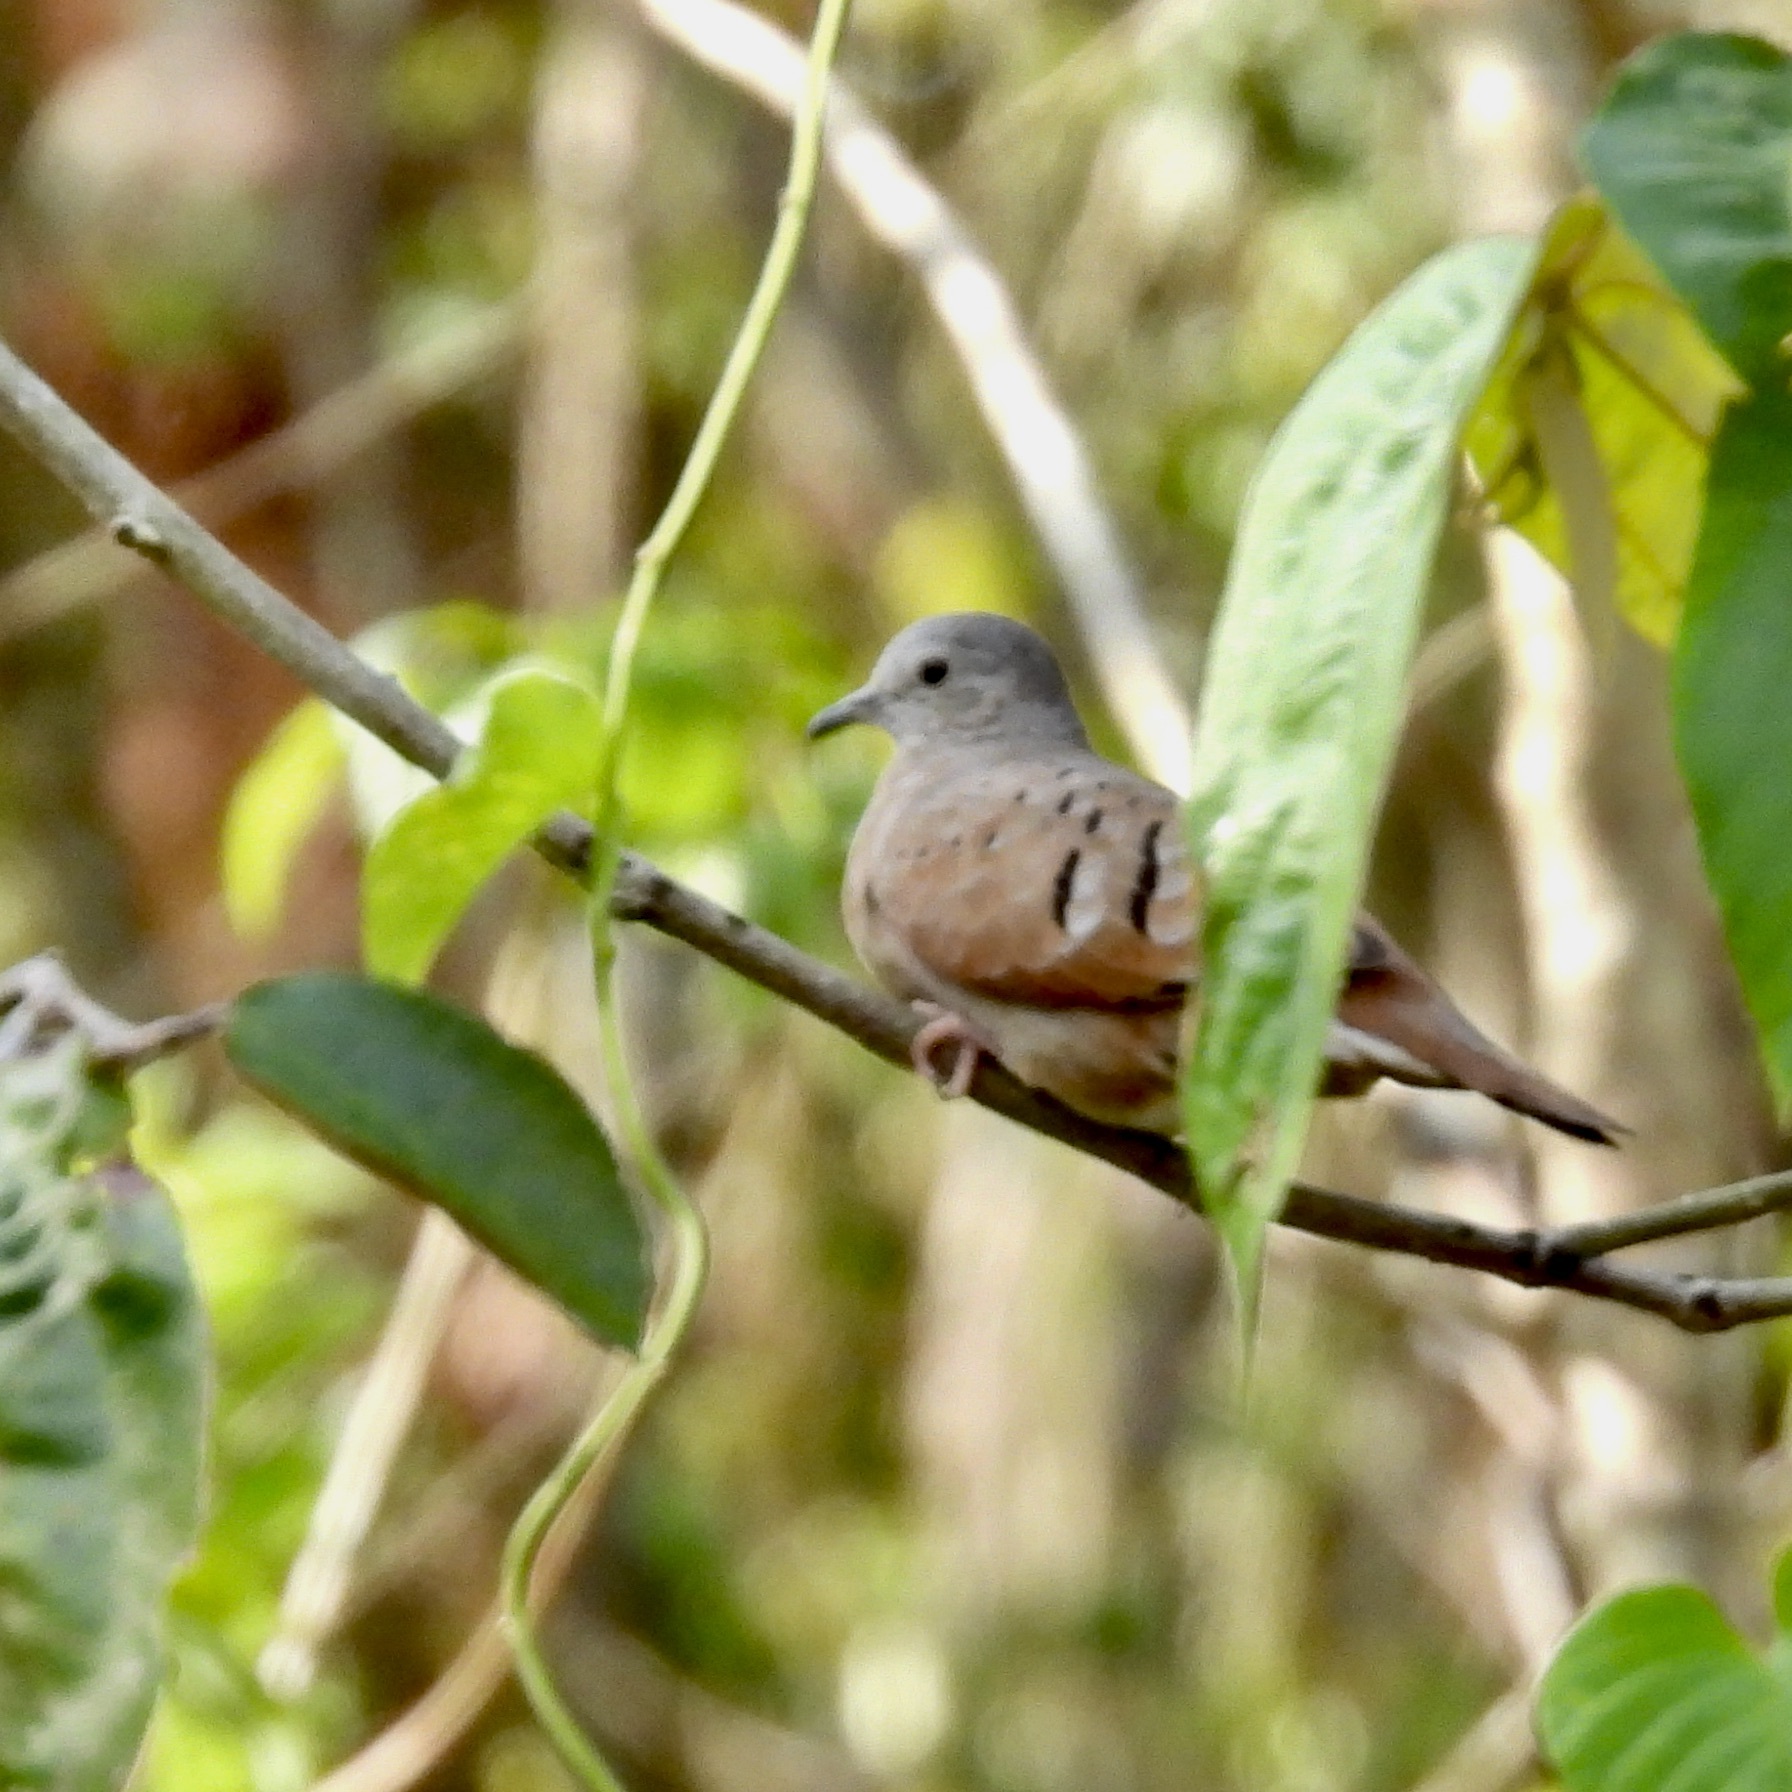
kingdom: Animalia
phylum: Chordata
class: Aves
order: Columbiformes
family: Columbidae
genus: Columbina
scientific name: Columbina talpacoti
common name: Ruddy ground dove
